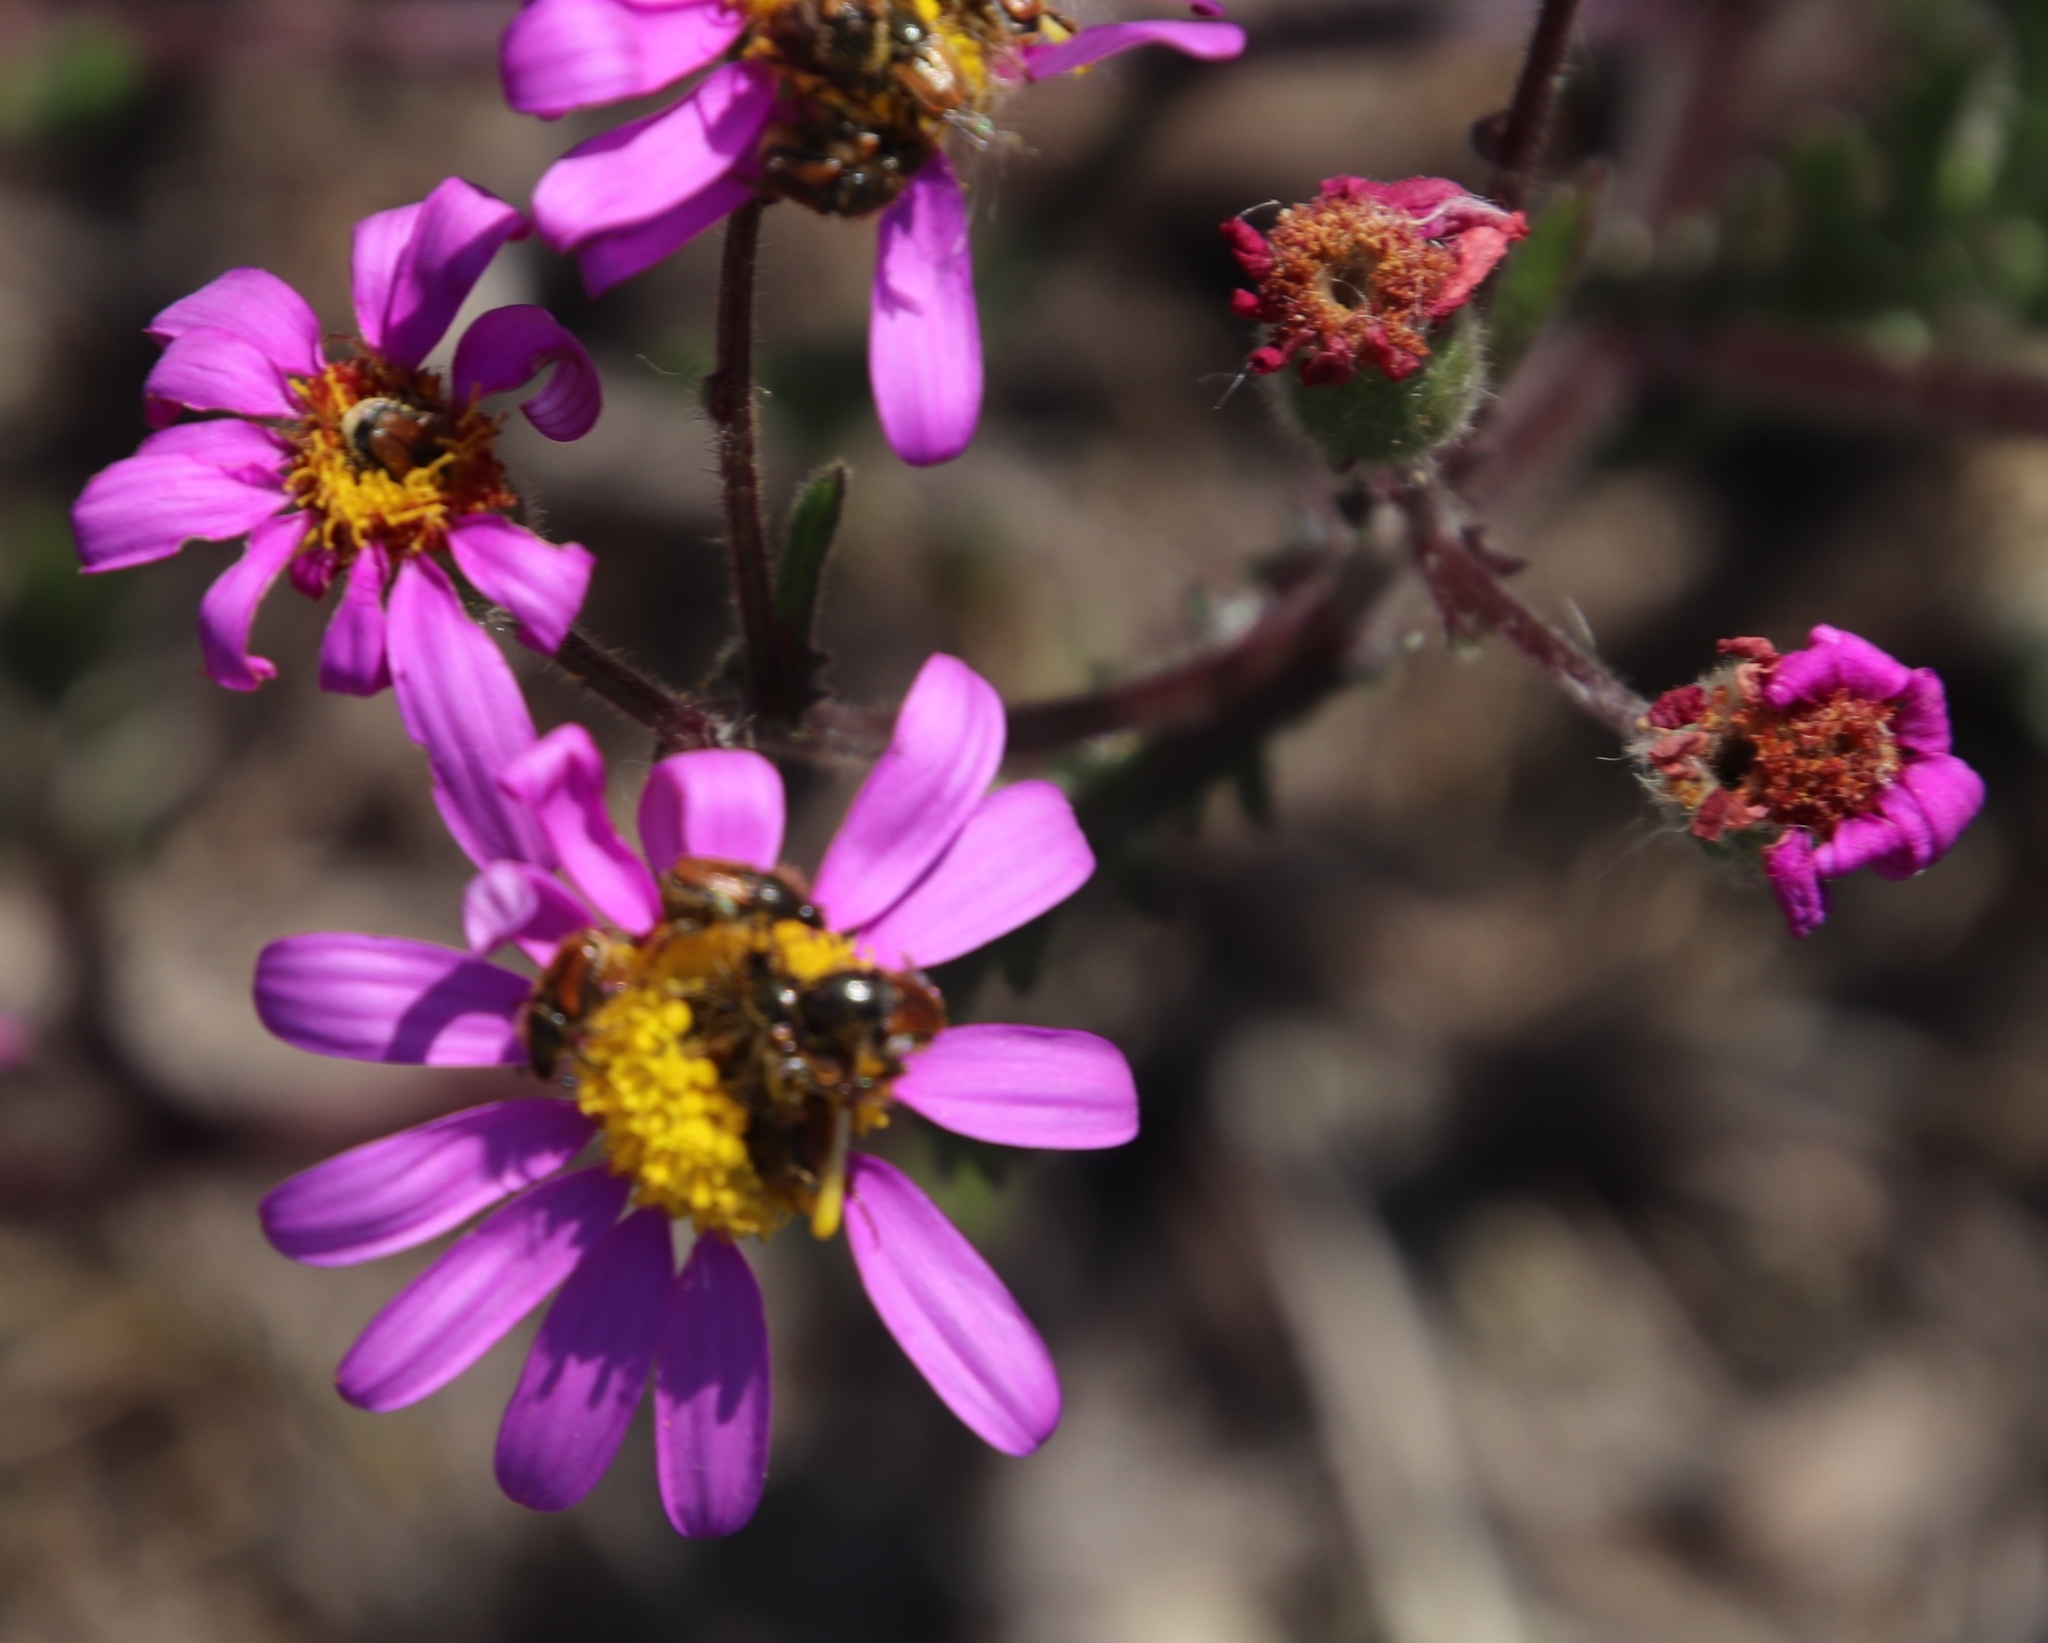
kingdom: Plantae
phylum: Tracheophyta
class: Magnoliopsida
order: Asterales
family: Asteraceae
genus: Senecio
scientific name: Senecio arenarius
